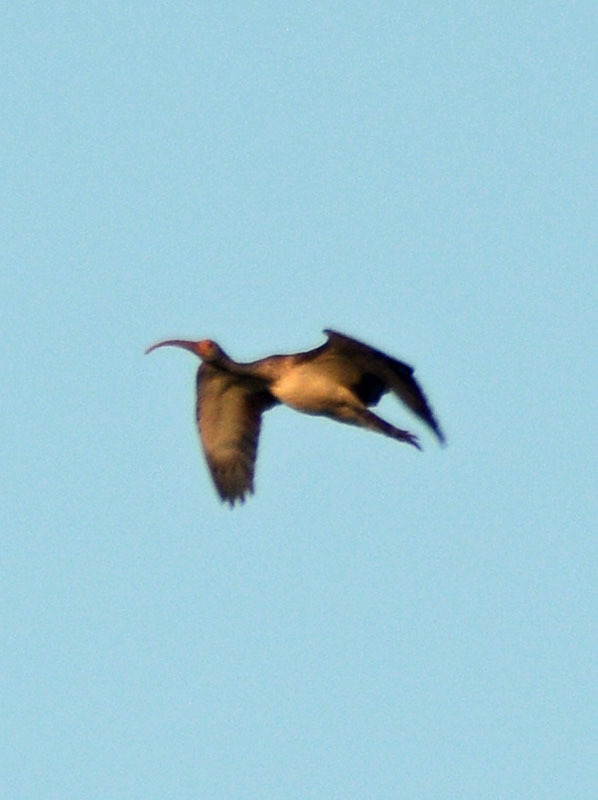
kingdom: Animalia
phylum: Chordata
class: Aves
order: Pelecaniformes
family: Threskiornithidae
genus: Eudocimus
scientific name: Eudocimus albus
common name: White ibis
